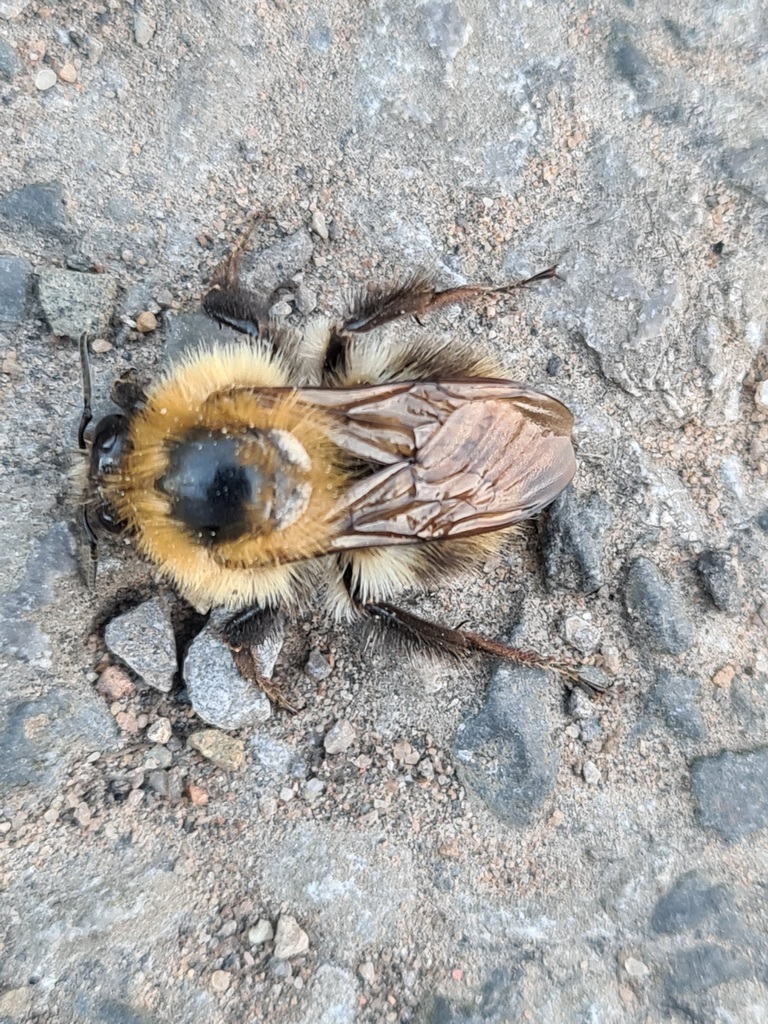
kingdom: Animalia
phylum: Arthropoda
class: Insecta
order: Hymenoptera
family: Apidae
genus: Bombus
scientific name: Bombus pascuorum
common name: Common carder bee
